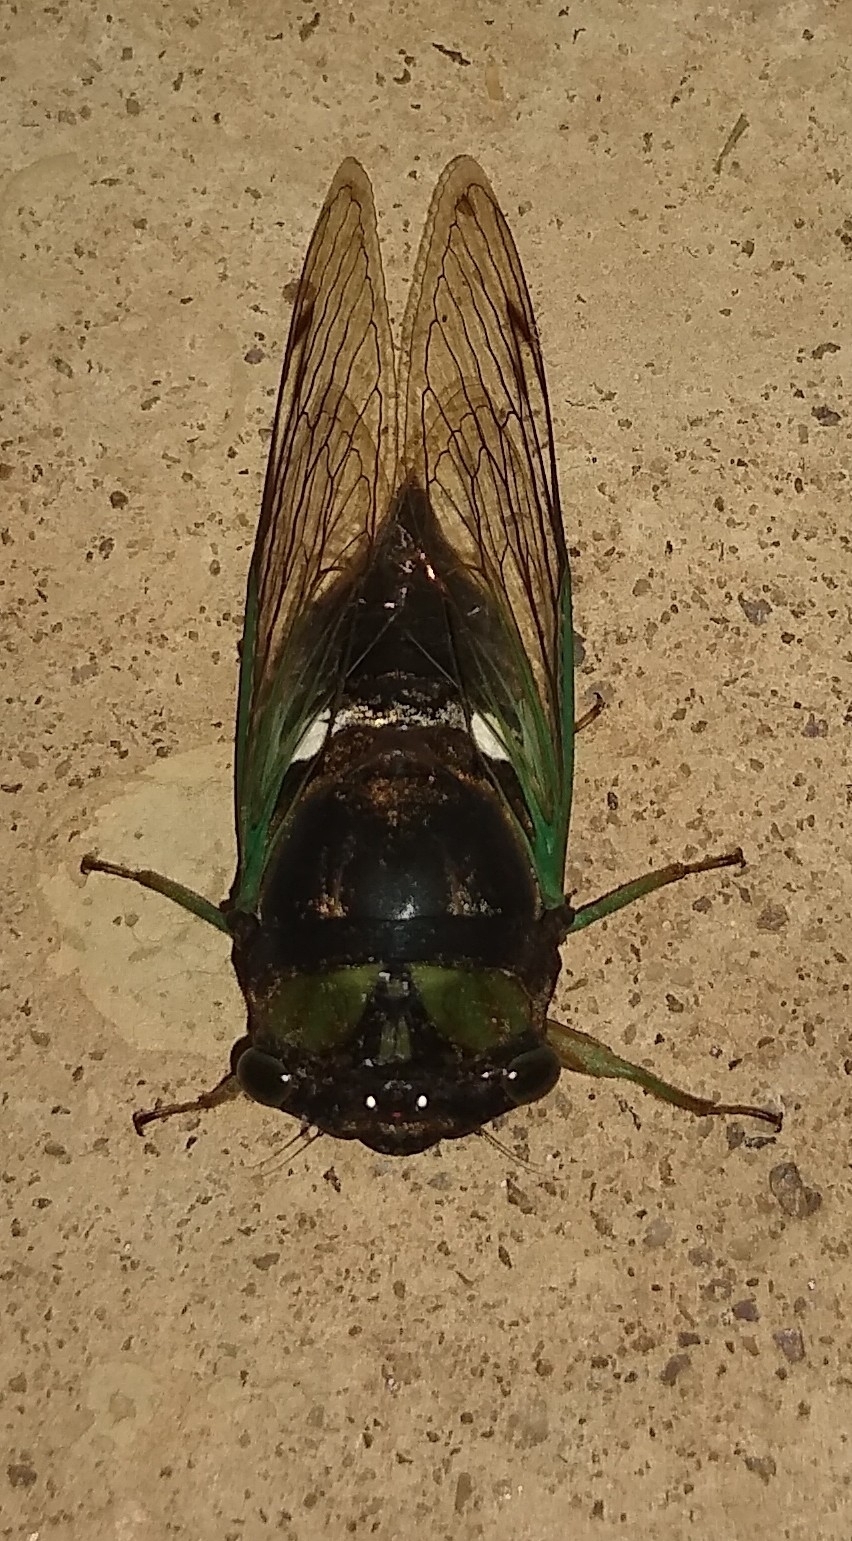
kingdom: Animalia
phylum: Arthropoda
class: Insecta
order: Hemiptera
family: Cicadidae
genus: Neotibicen
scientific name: Neotibicen tibicen
